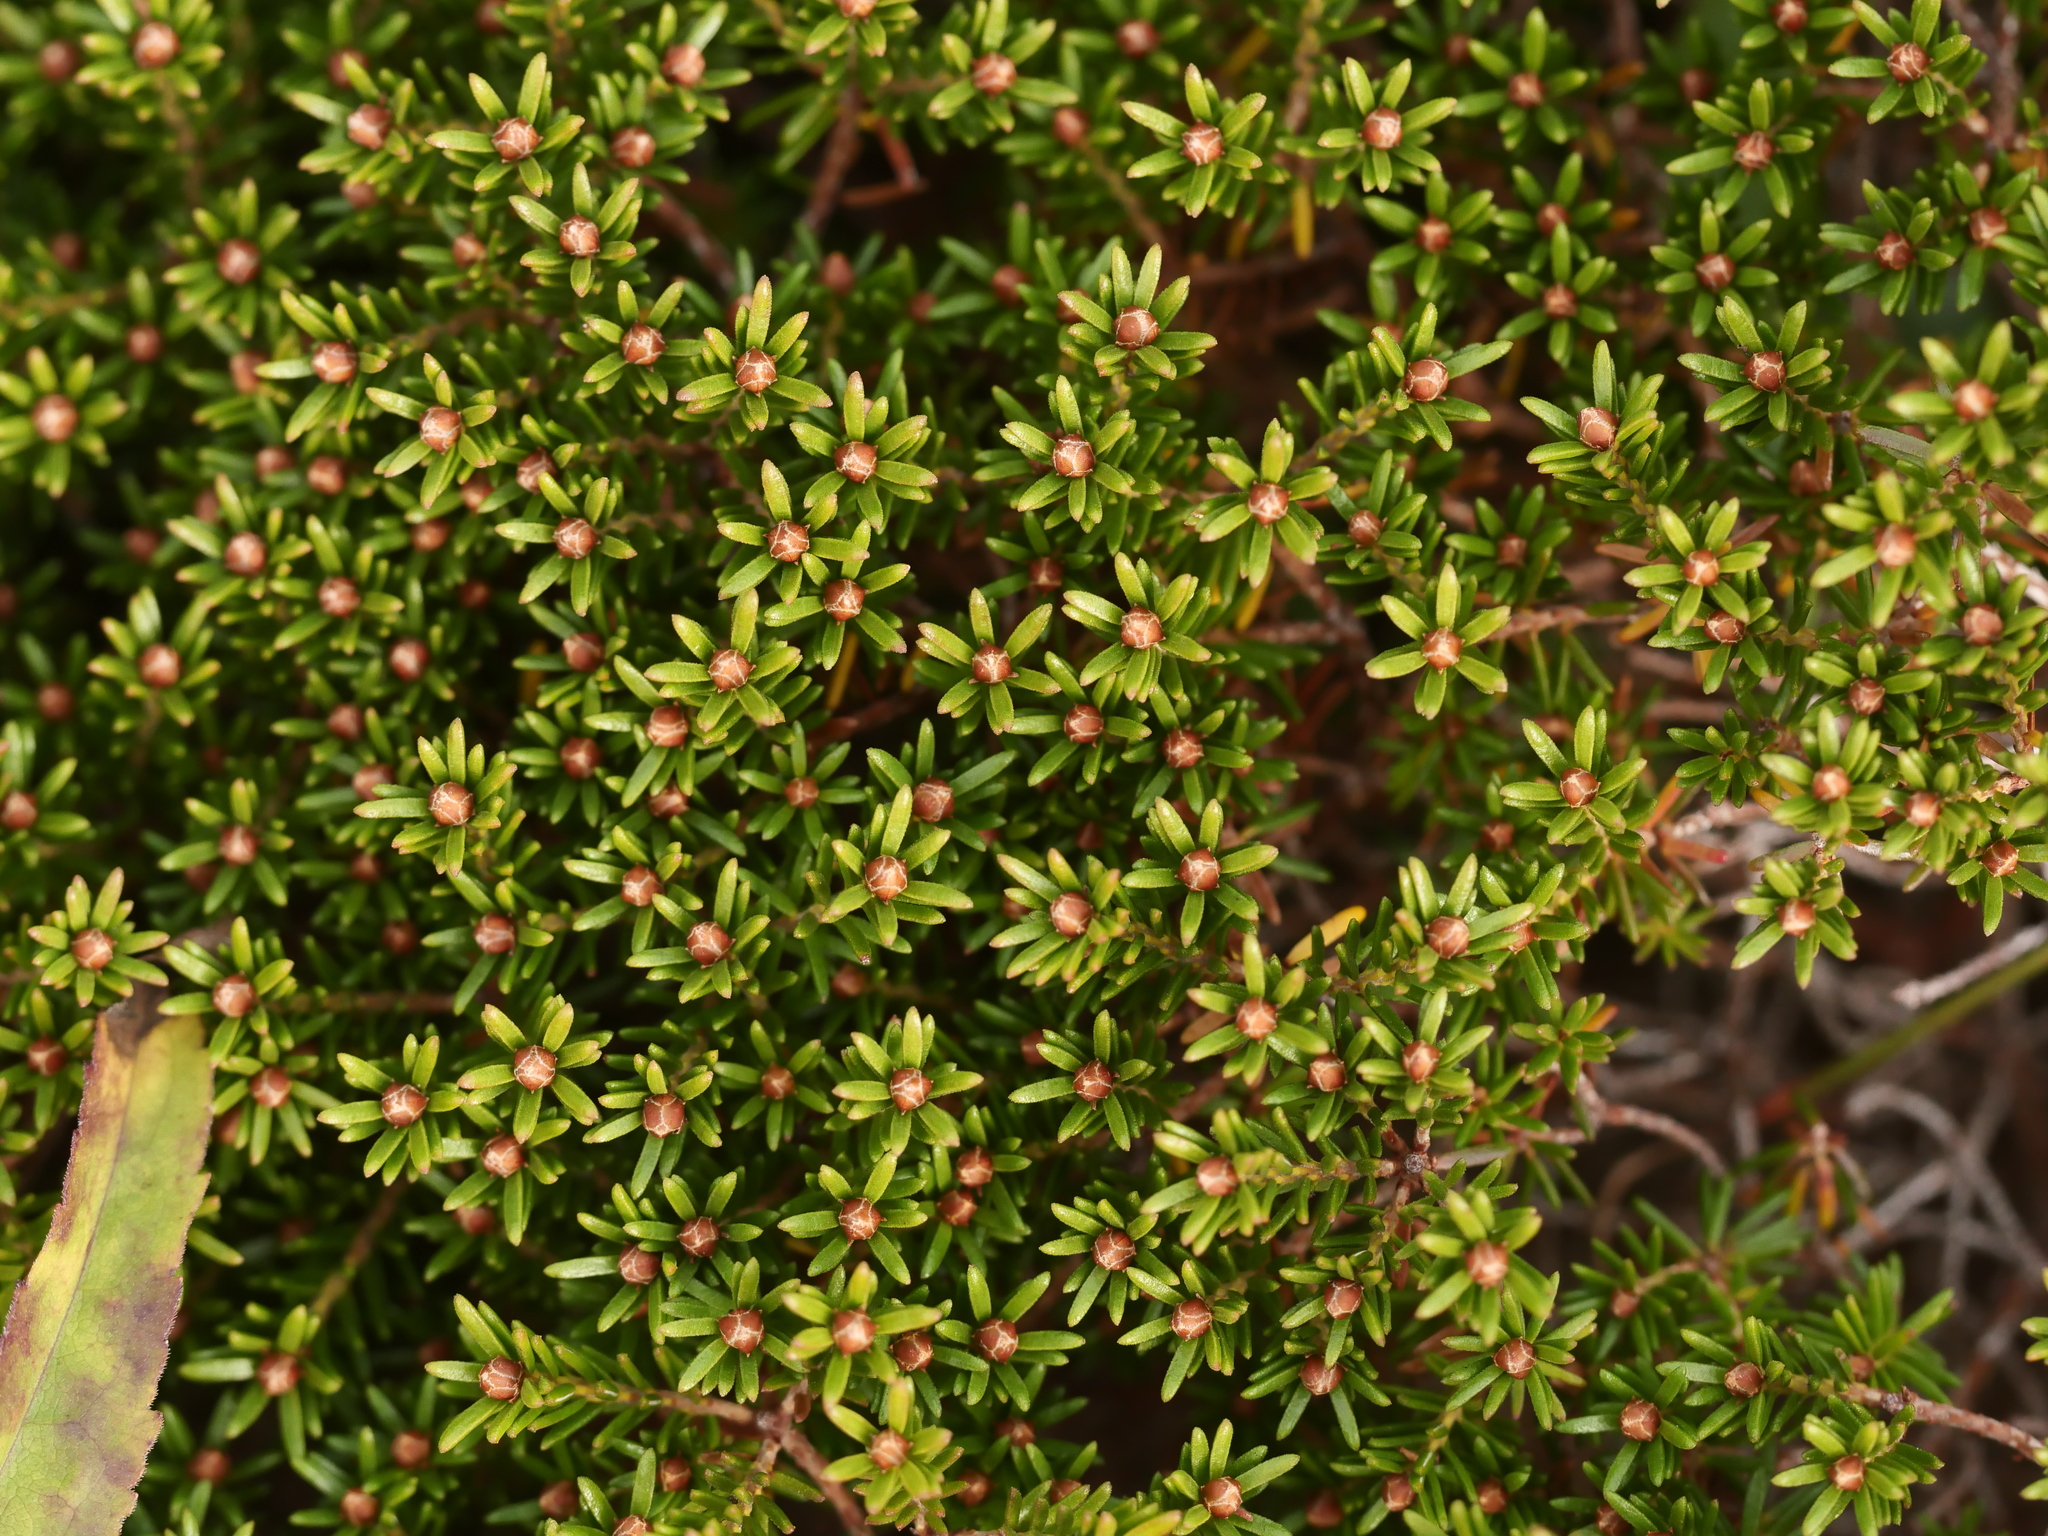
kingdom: Plantae
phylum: Tracheophyta
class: Magnoliopsida
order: Ericales
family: Ericaceae
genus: Corema
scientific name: Corema conradii
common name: Broom-crowberry
